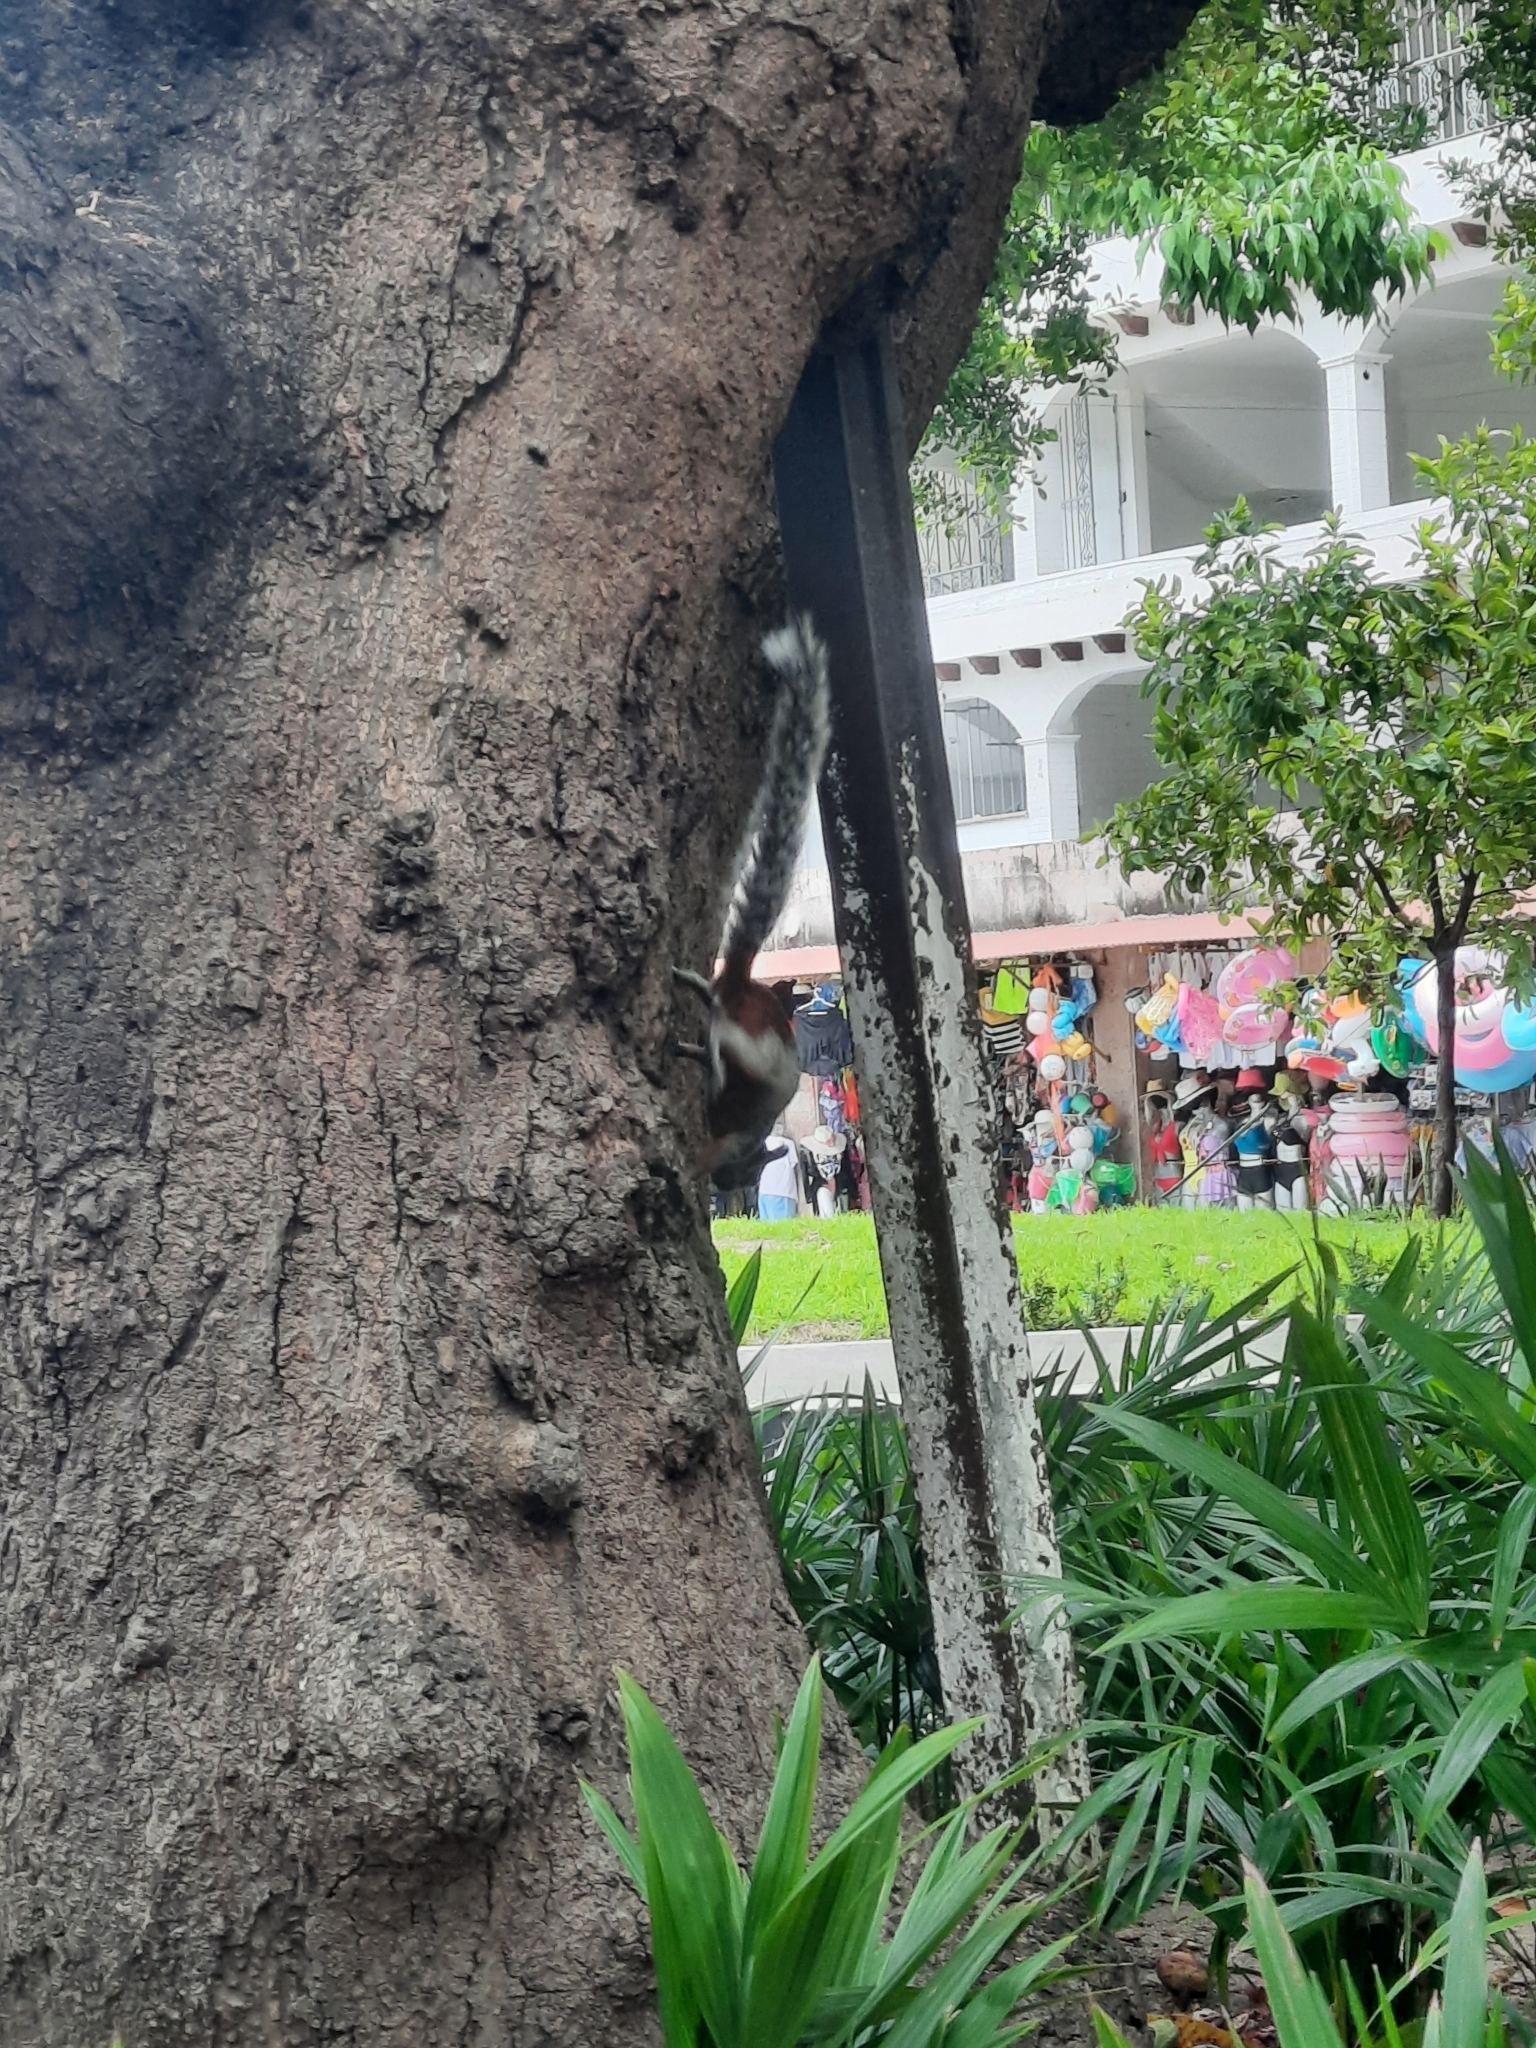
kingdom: Animalia
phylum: Chordata
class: Mammalia
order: Rodentia
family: Sciuridae
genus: Sciurus
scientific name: Sciurus aureogaster
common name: Red-bellied squirrel
